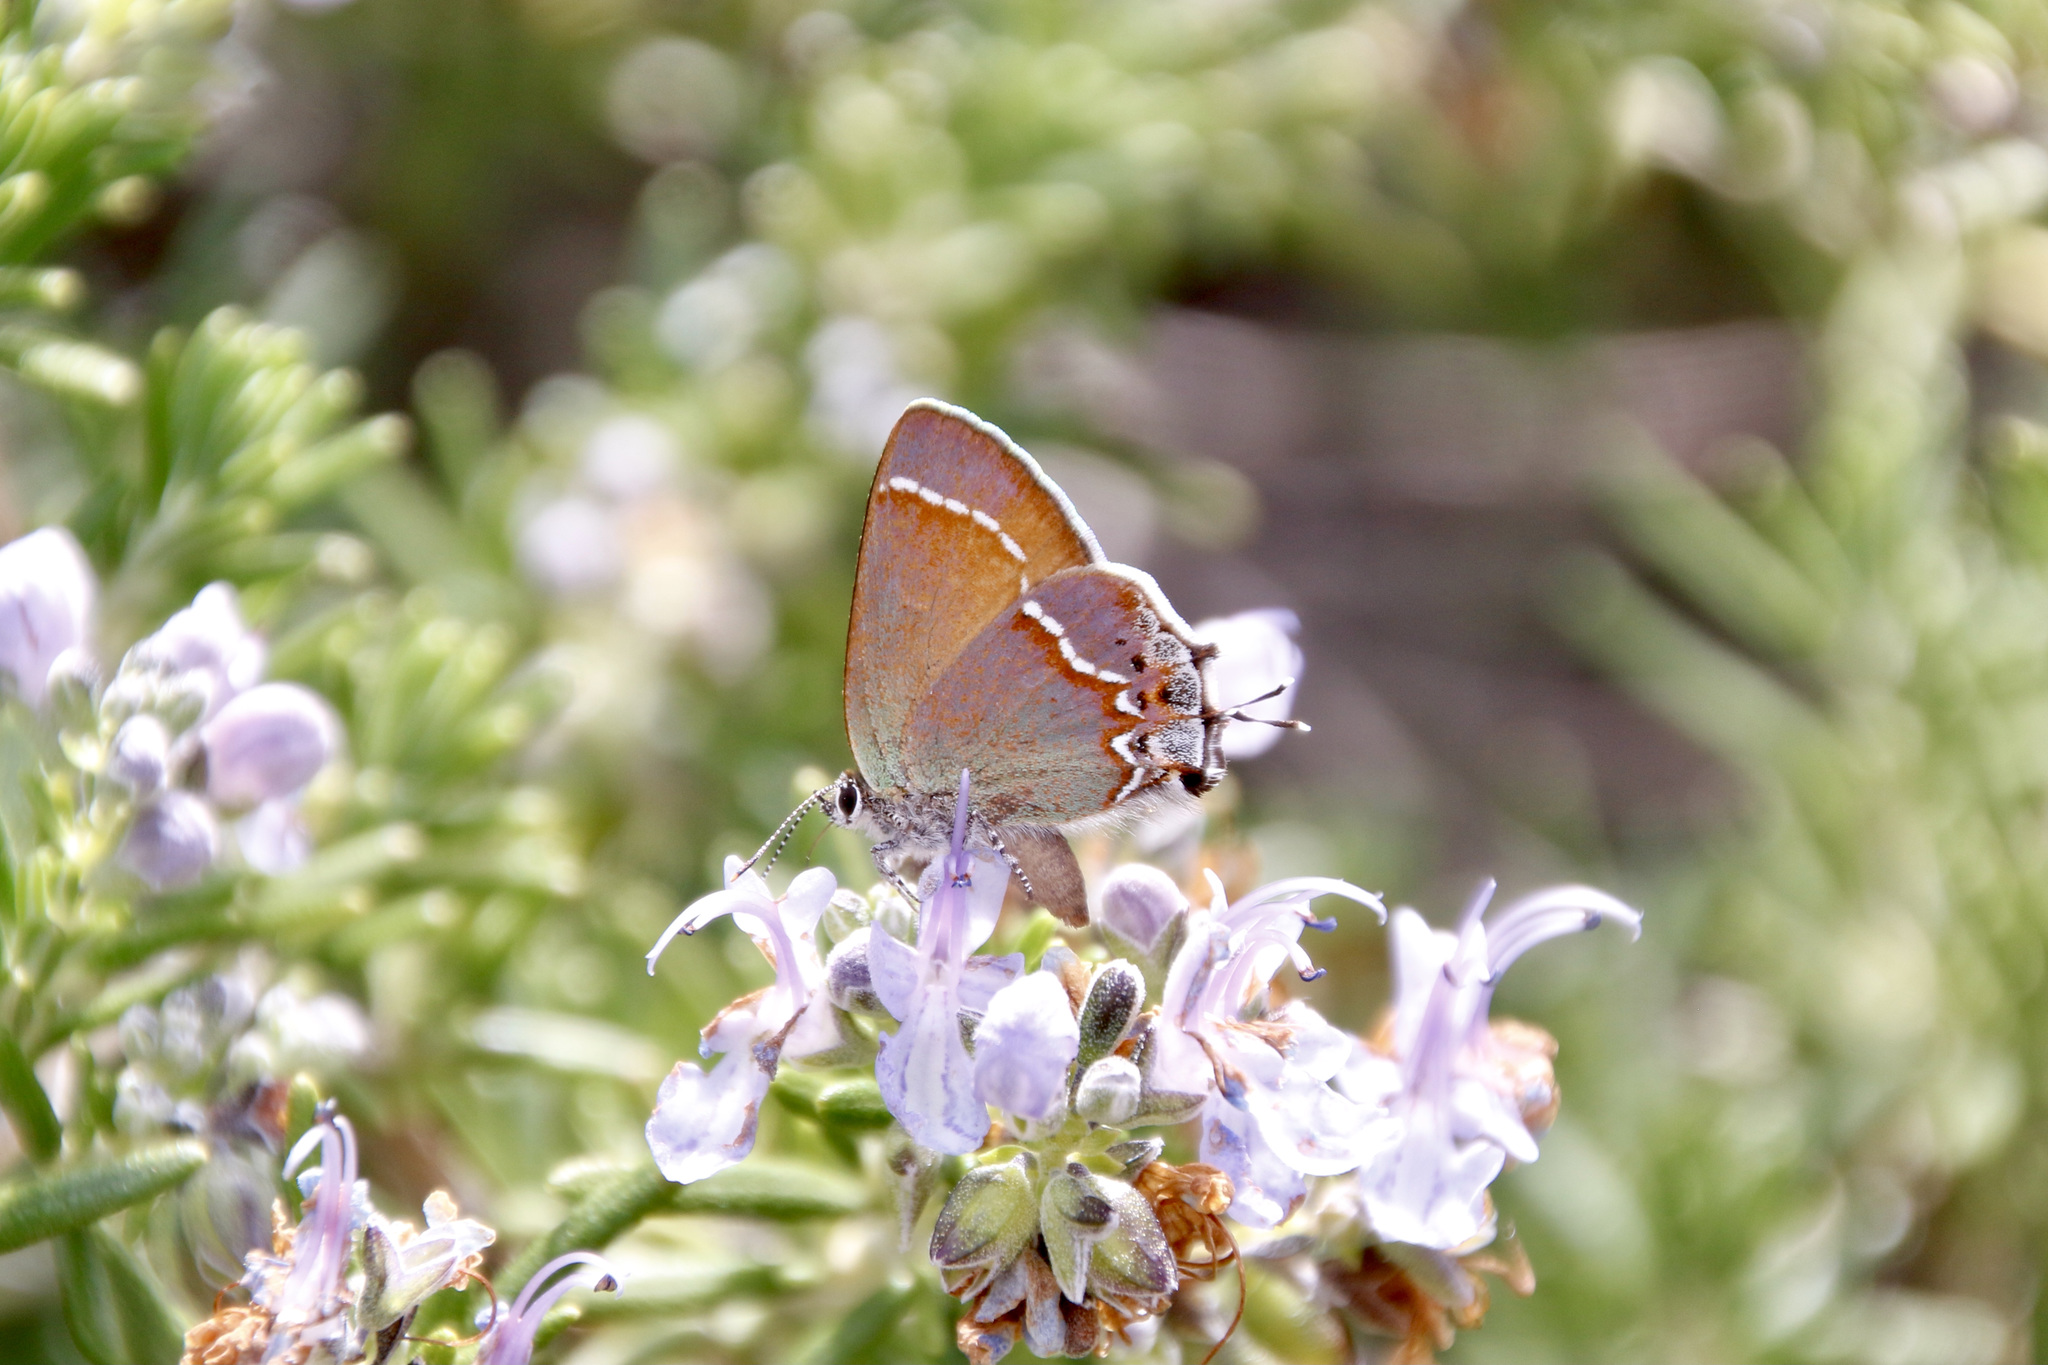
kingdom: Animalia
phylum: Arthropoda
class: Insecta
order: Lepidoptera
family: Lycaenidae
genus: Mitoura
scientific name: Mitoura siva
